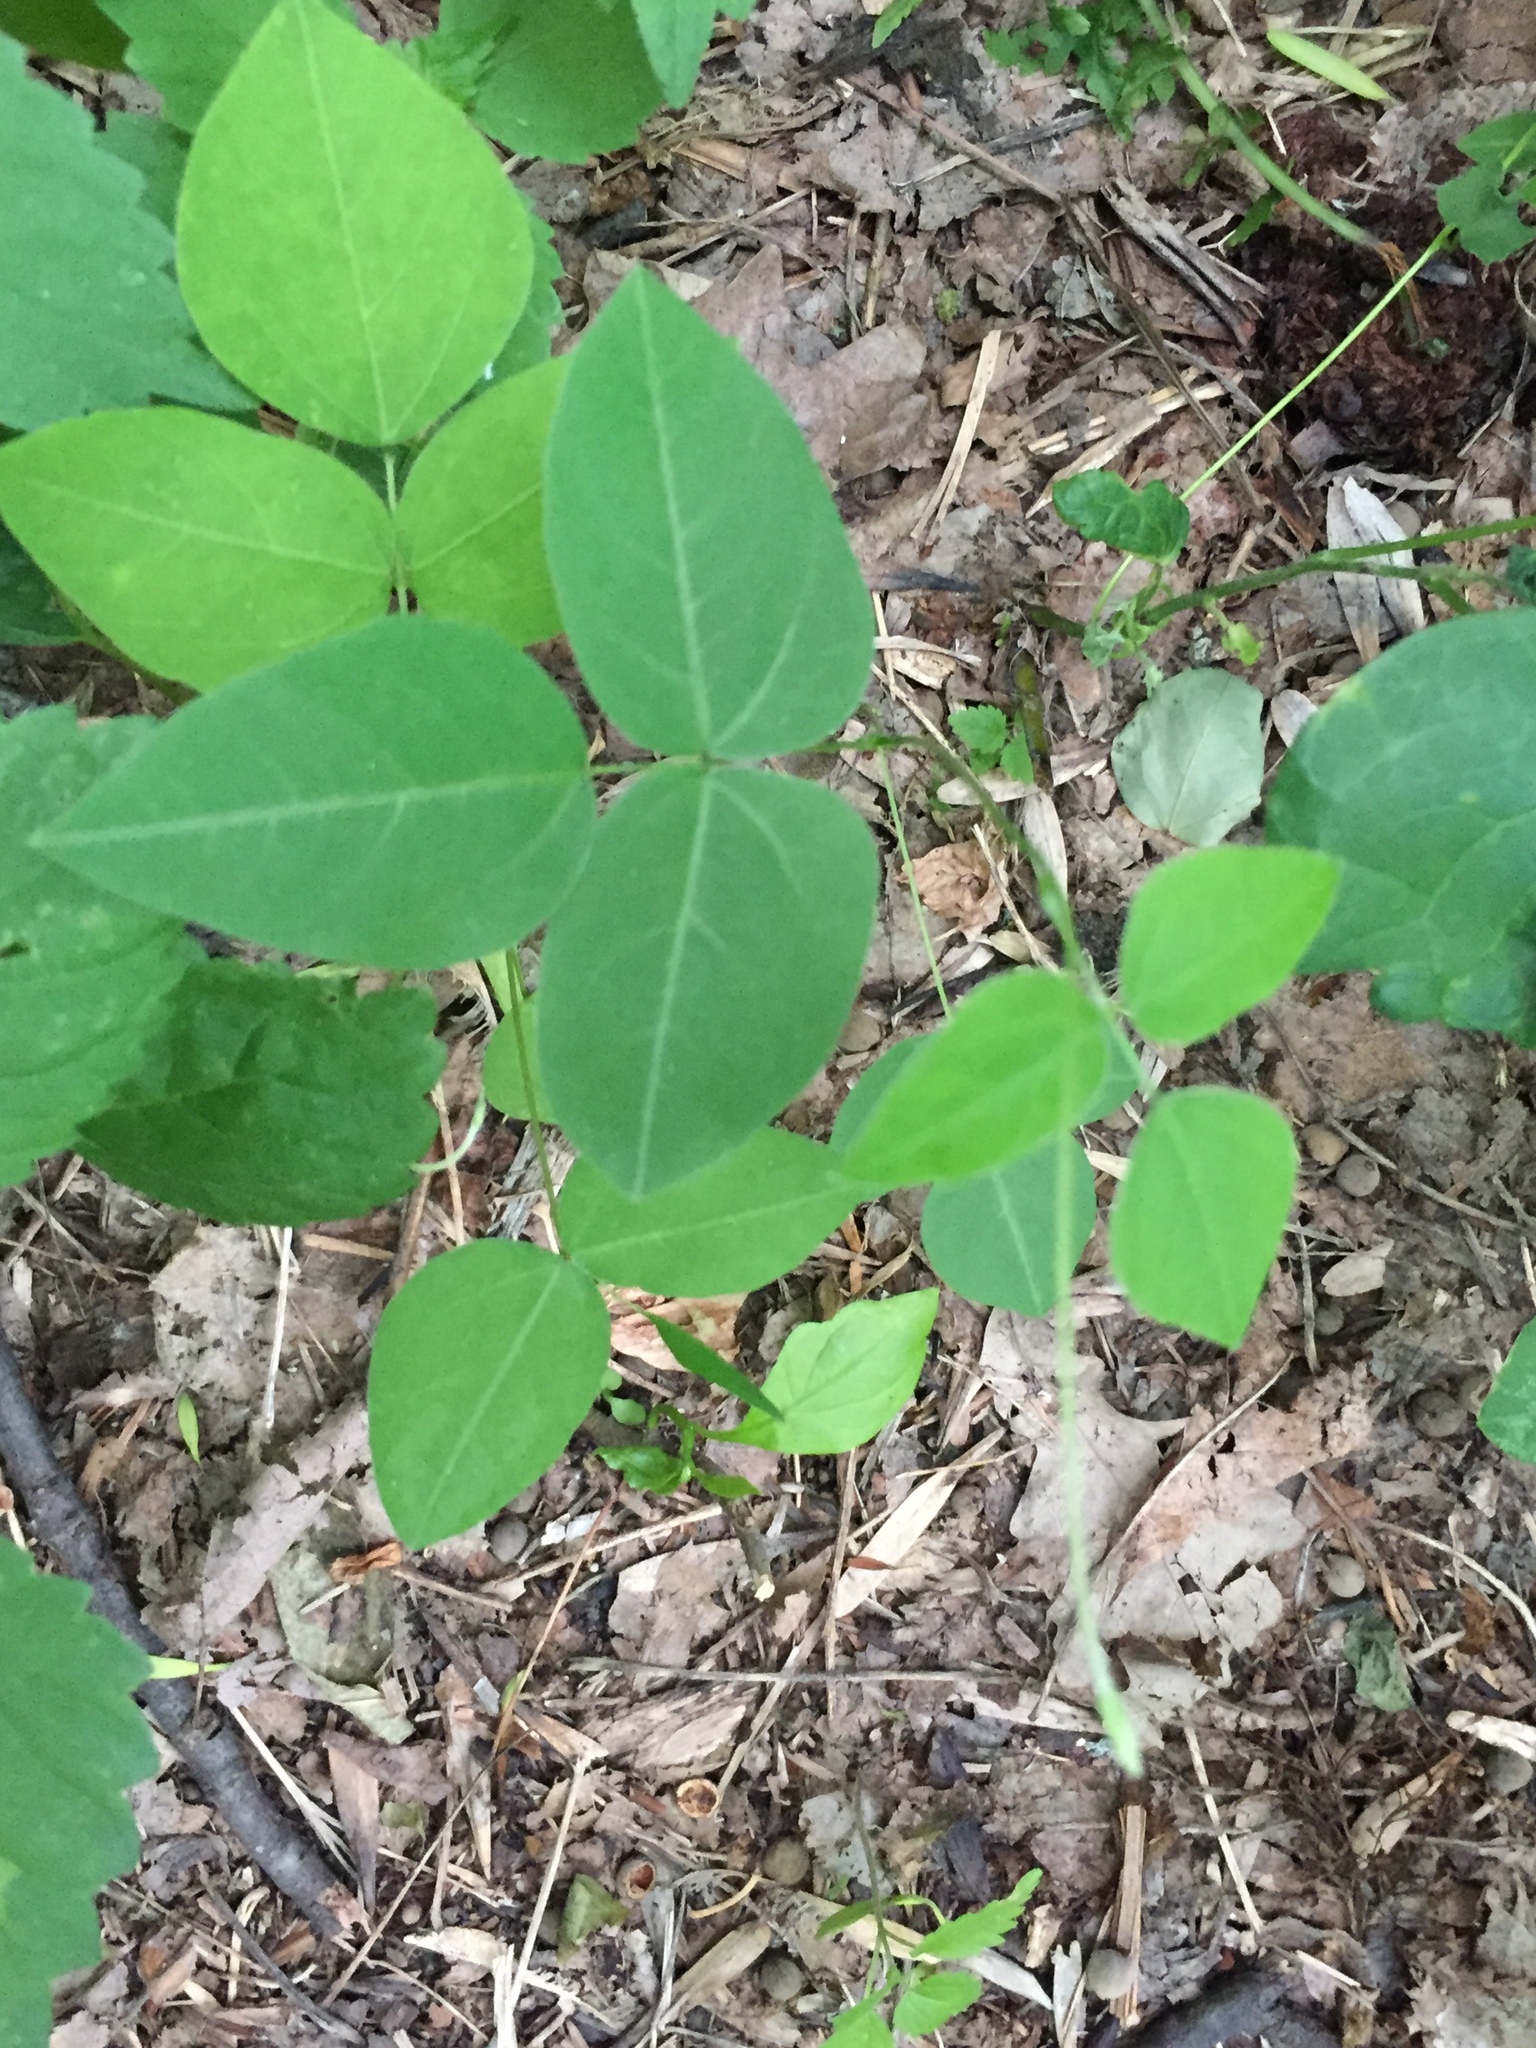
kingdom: Plantae
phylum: Tracheophyta
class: Magnoliopsida
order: Fabales
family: Fabaceae
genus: Amphicarpaea
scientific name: Amphicarpaea bracteata
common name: American hog peanut
